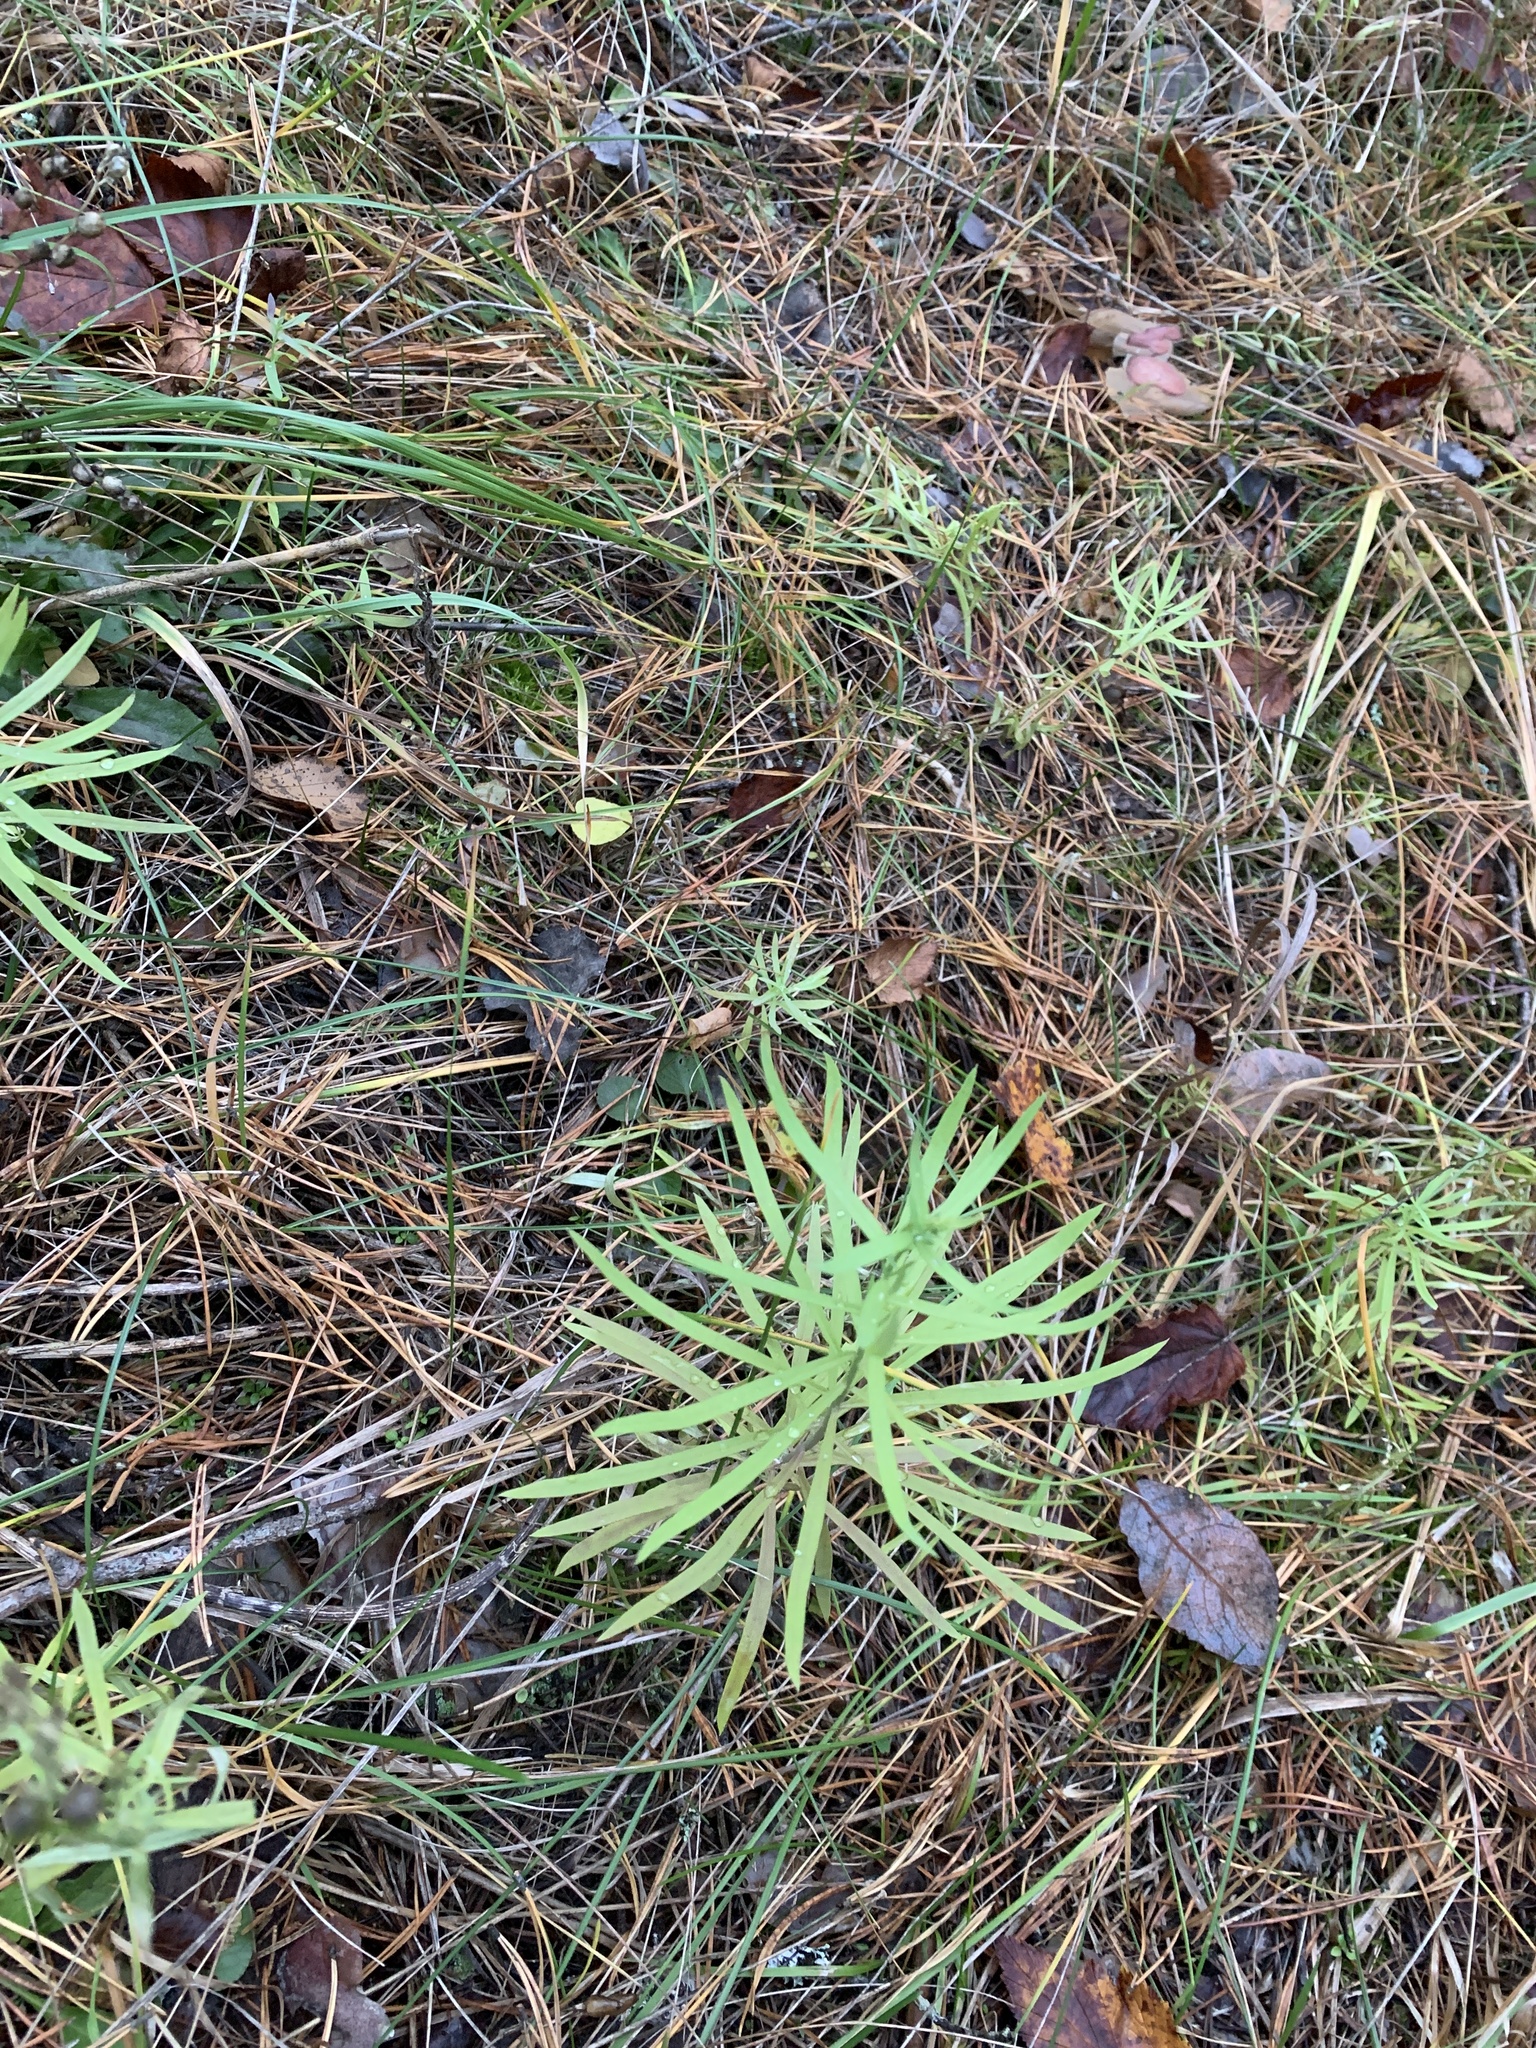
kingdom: Plantae
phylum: Tracheophyta
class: Magnoliopsida
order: Lamiales
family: Plantaginaceae
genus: Linaria
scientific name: Linaria vulgaris
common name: Butter and eggs
